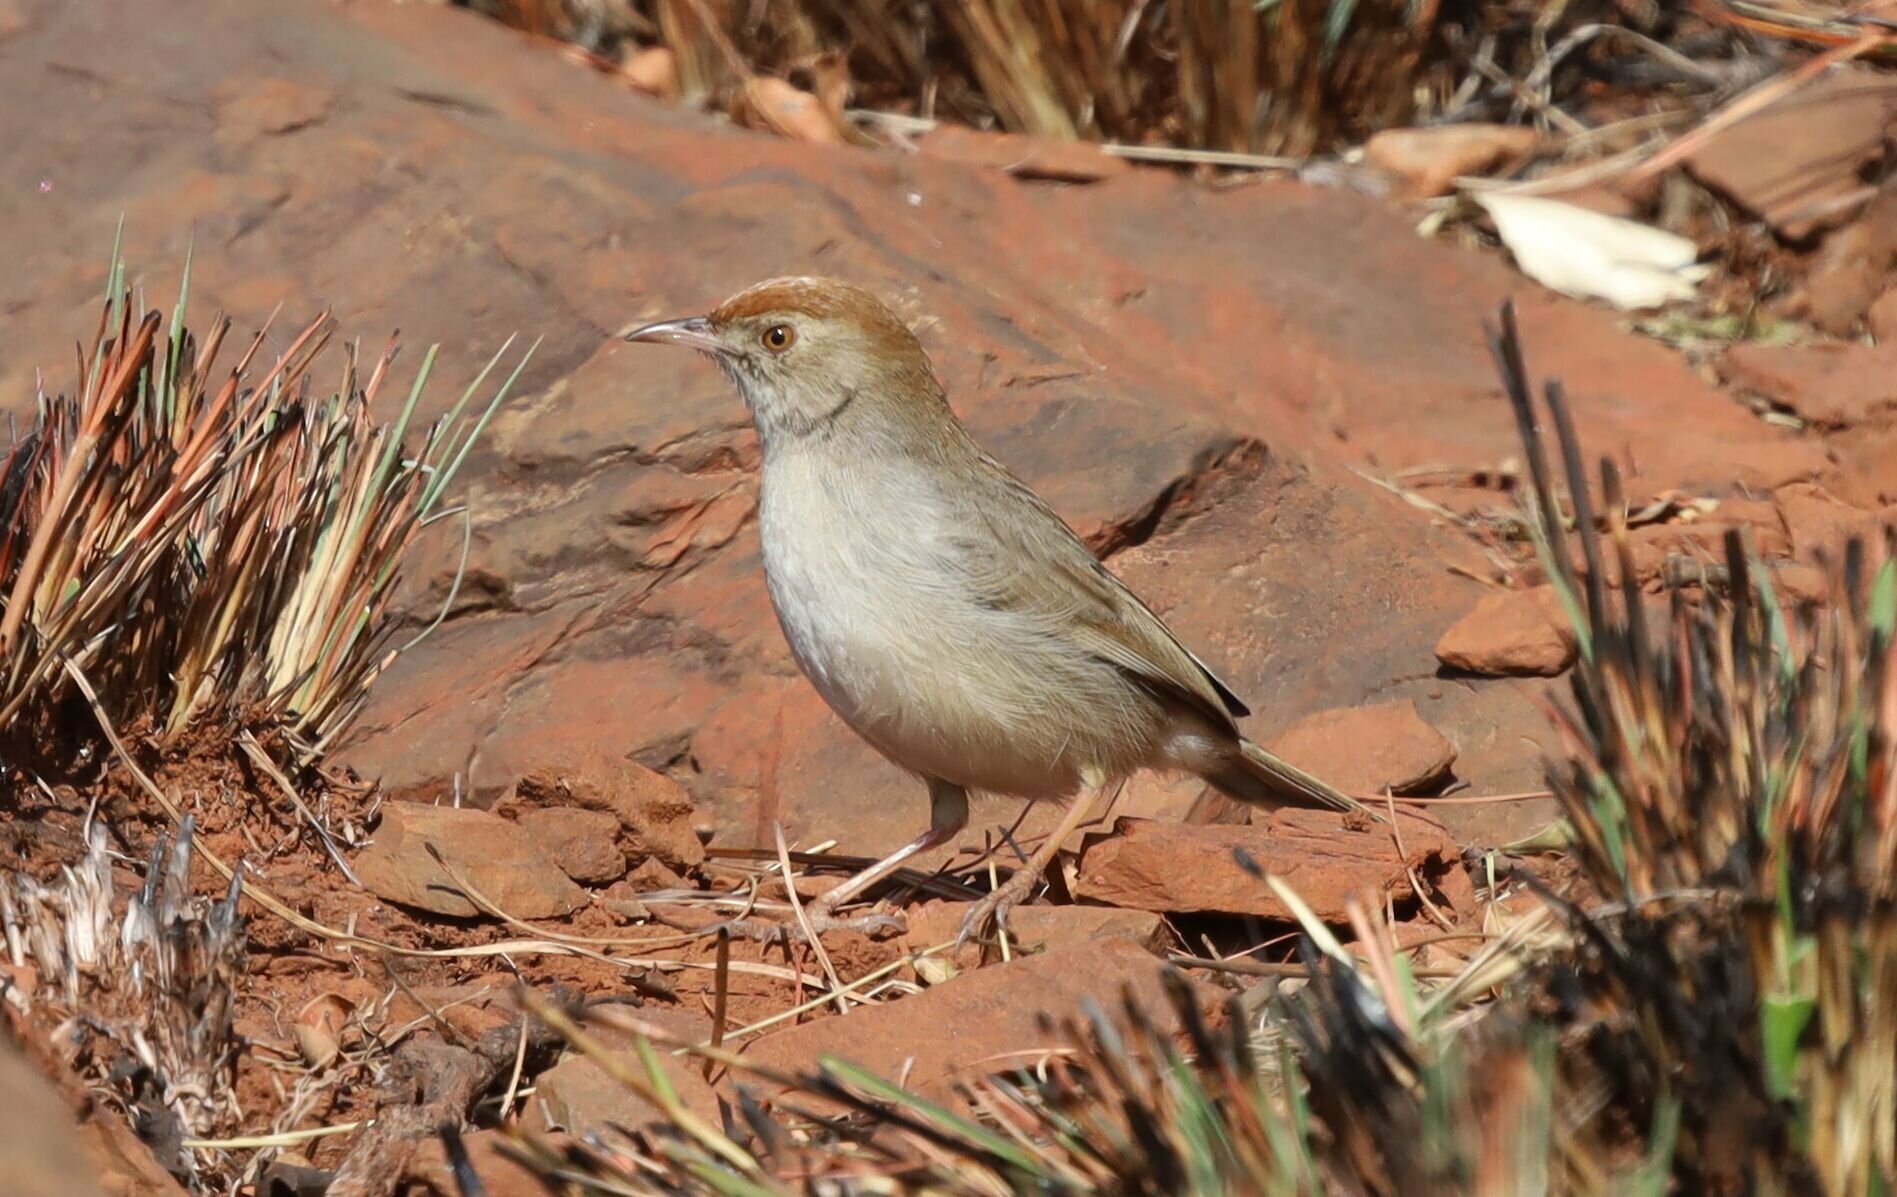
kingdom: Animalia
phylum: Chordata
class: Aves
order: Passeriformes
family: Cisticolidae
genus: Cisticola
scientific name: Cisticola aberrans
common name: Lazy cisticola
